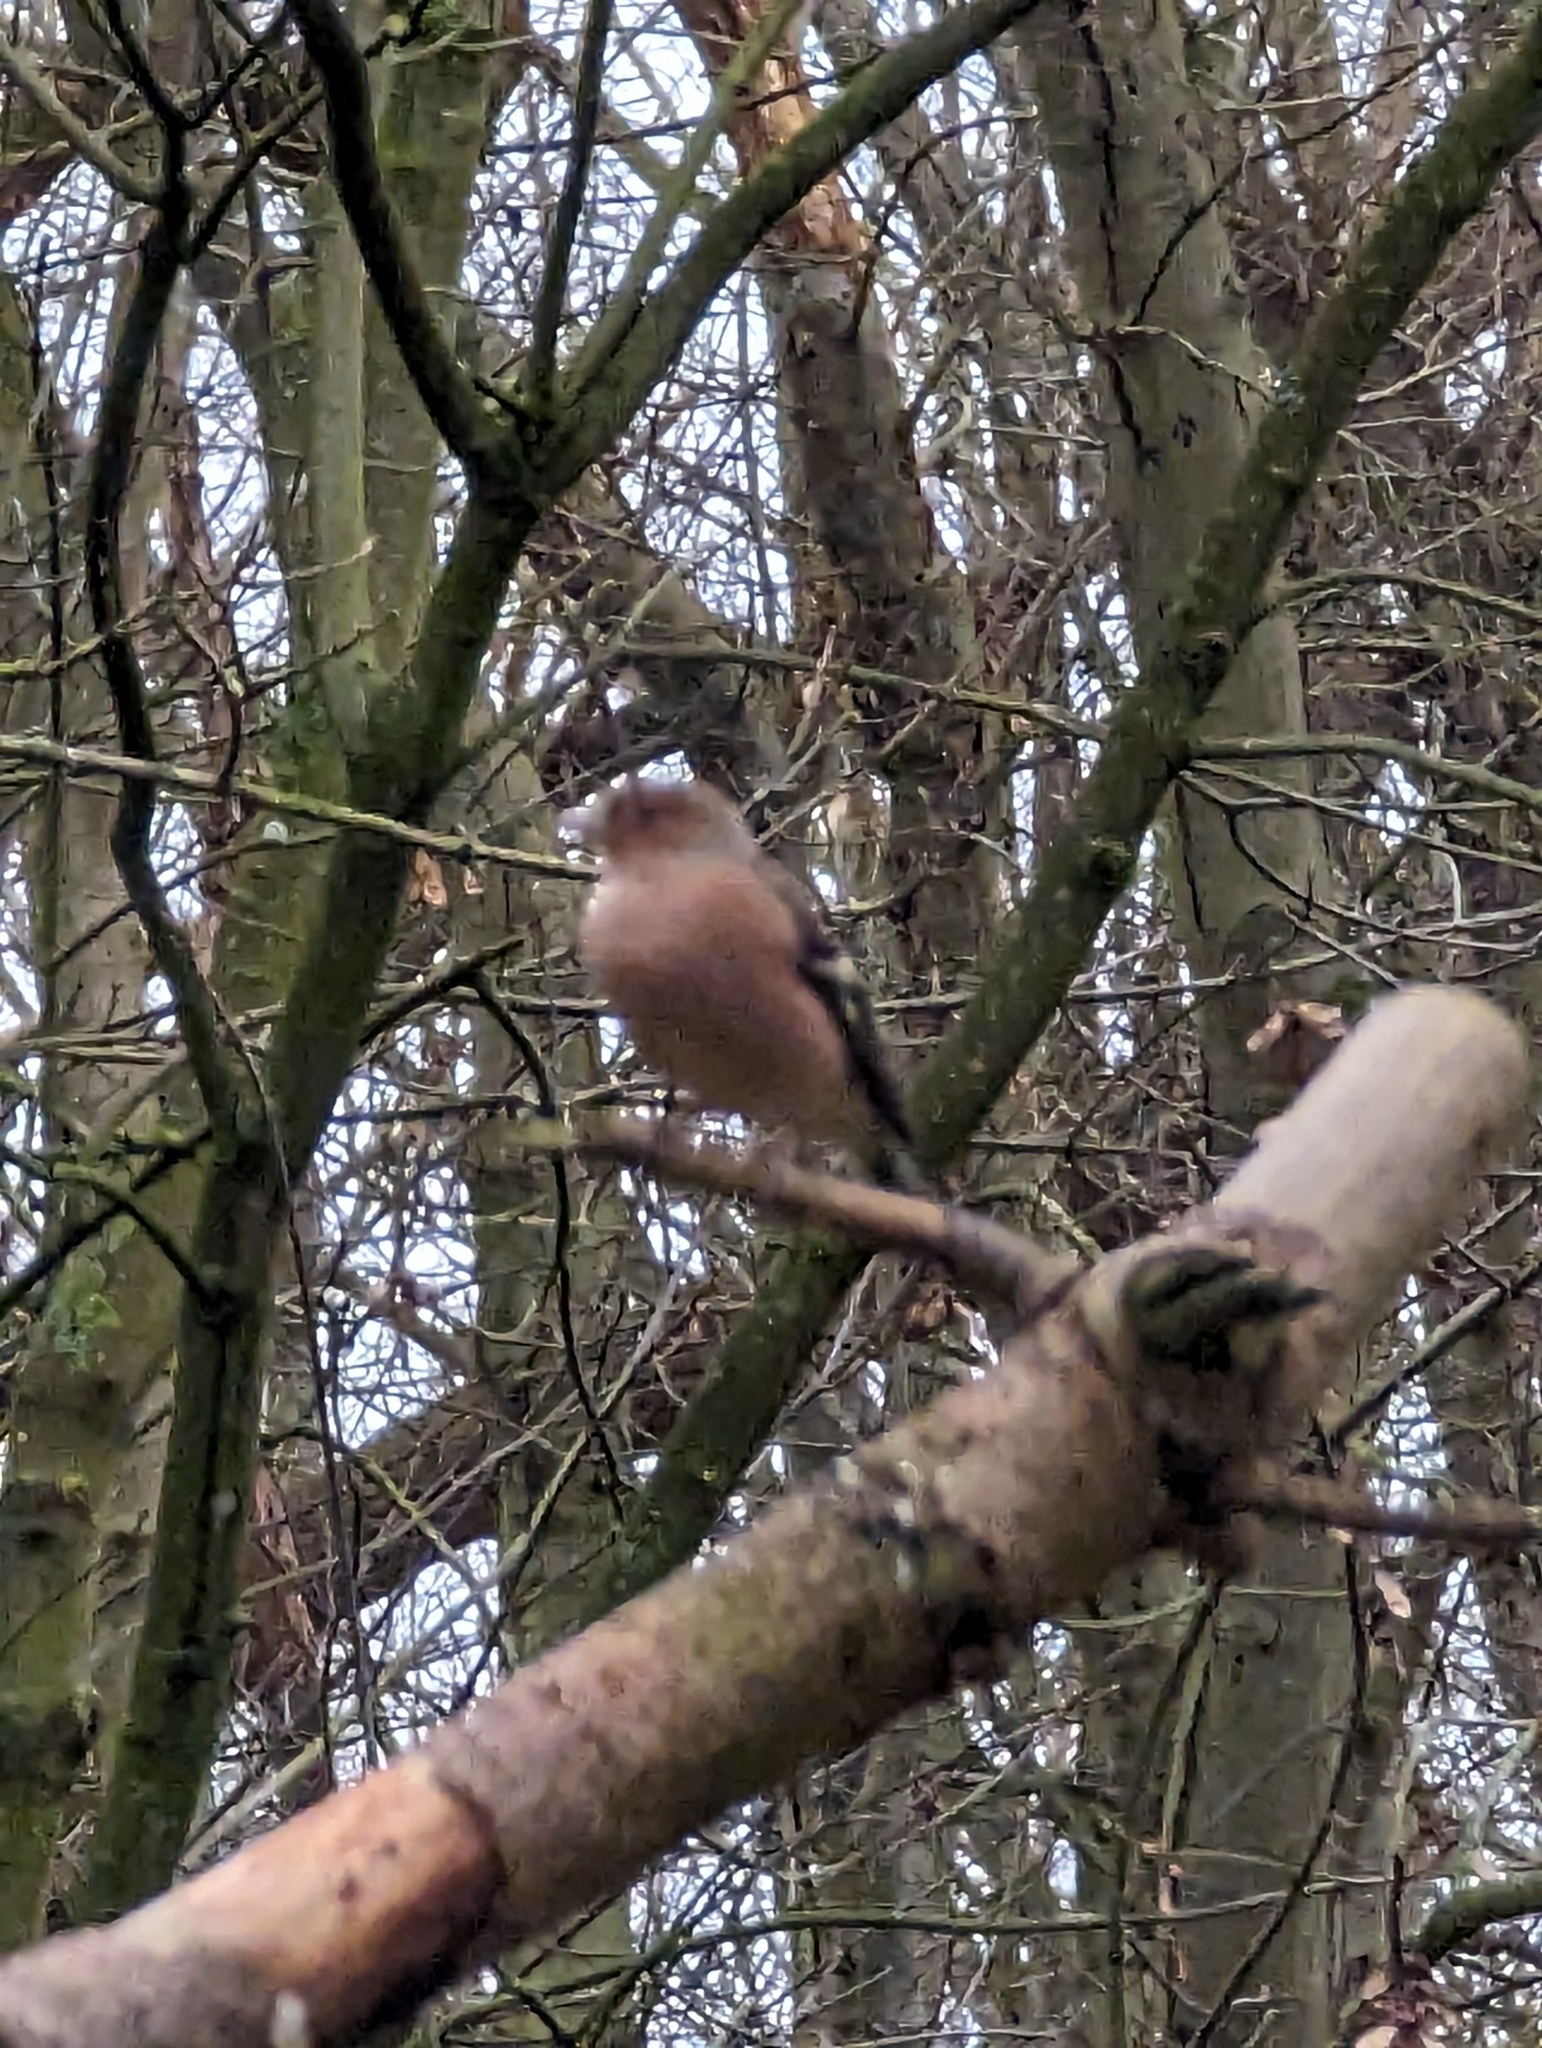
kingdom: Animalia
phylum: Chordata
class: Aves
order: Passeriformes
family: Fringillidae
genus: Fringilla
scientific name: Fringilla coelebs
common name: Common chaffinch
